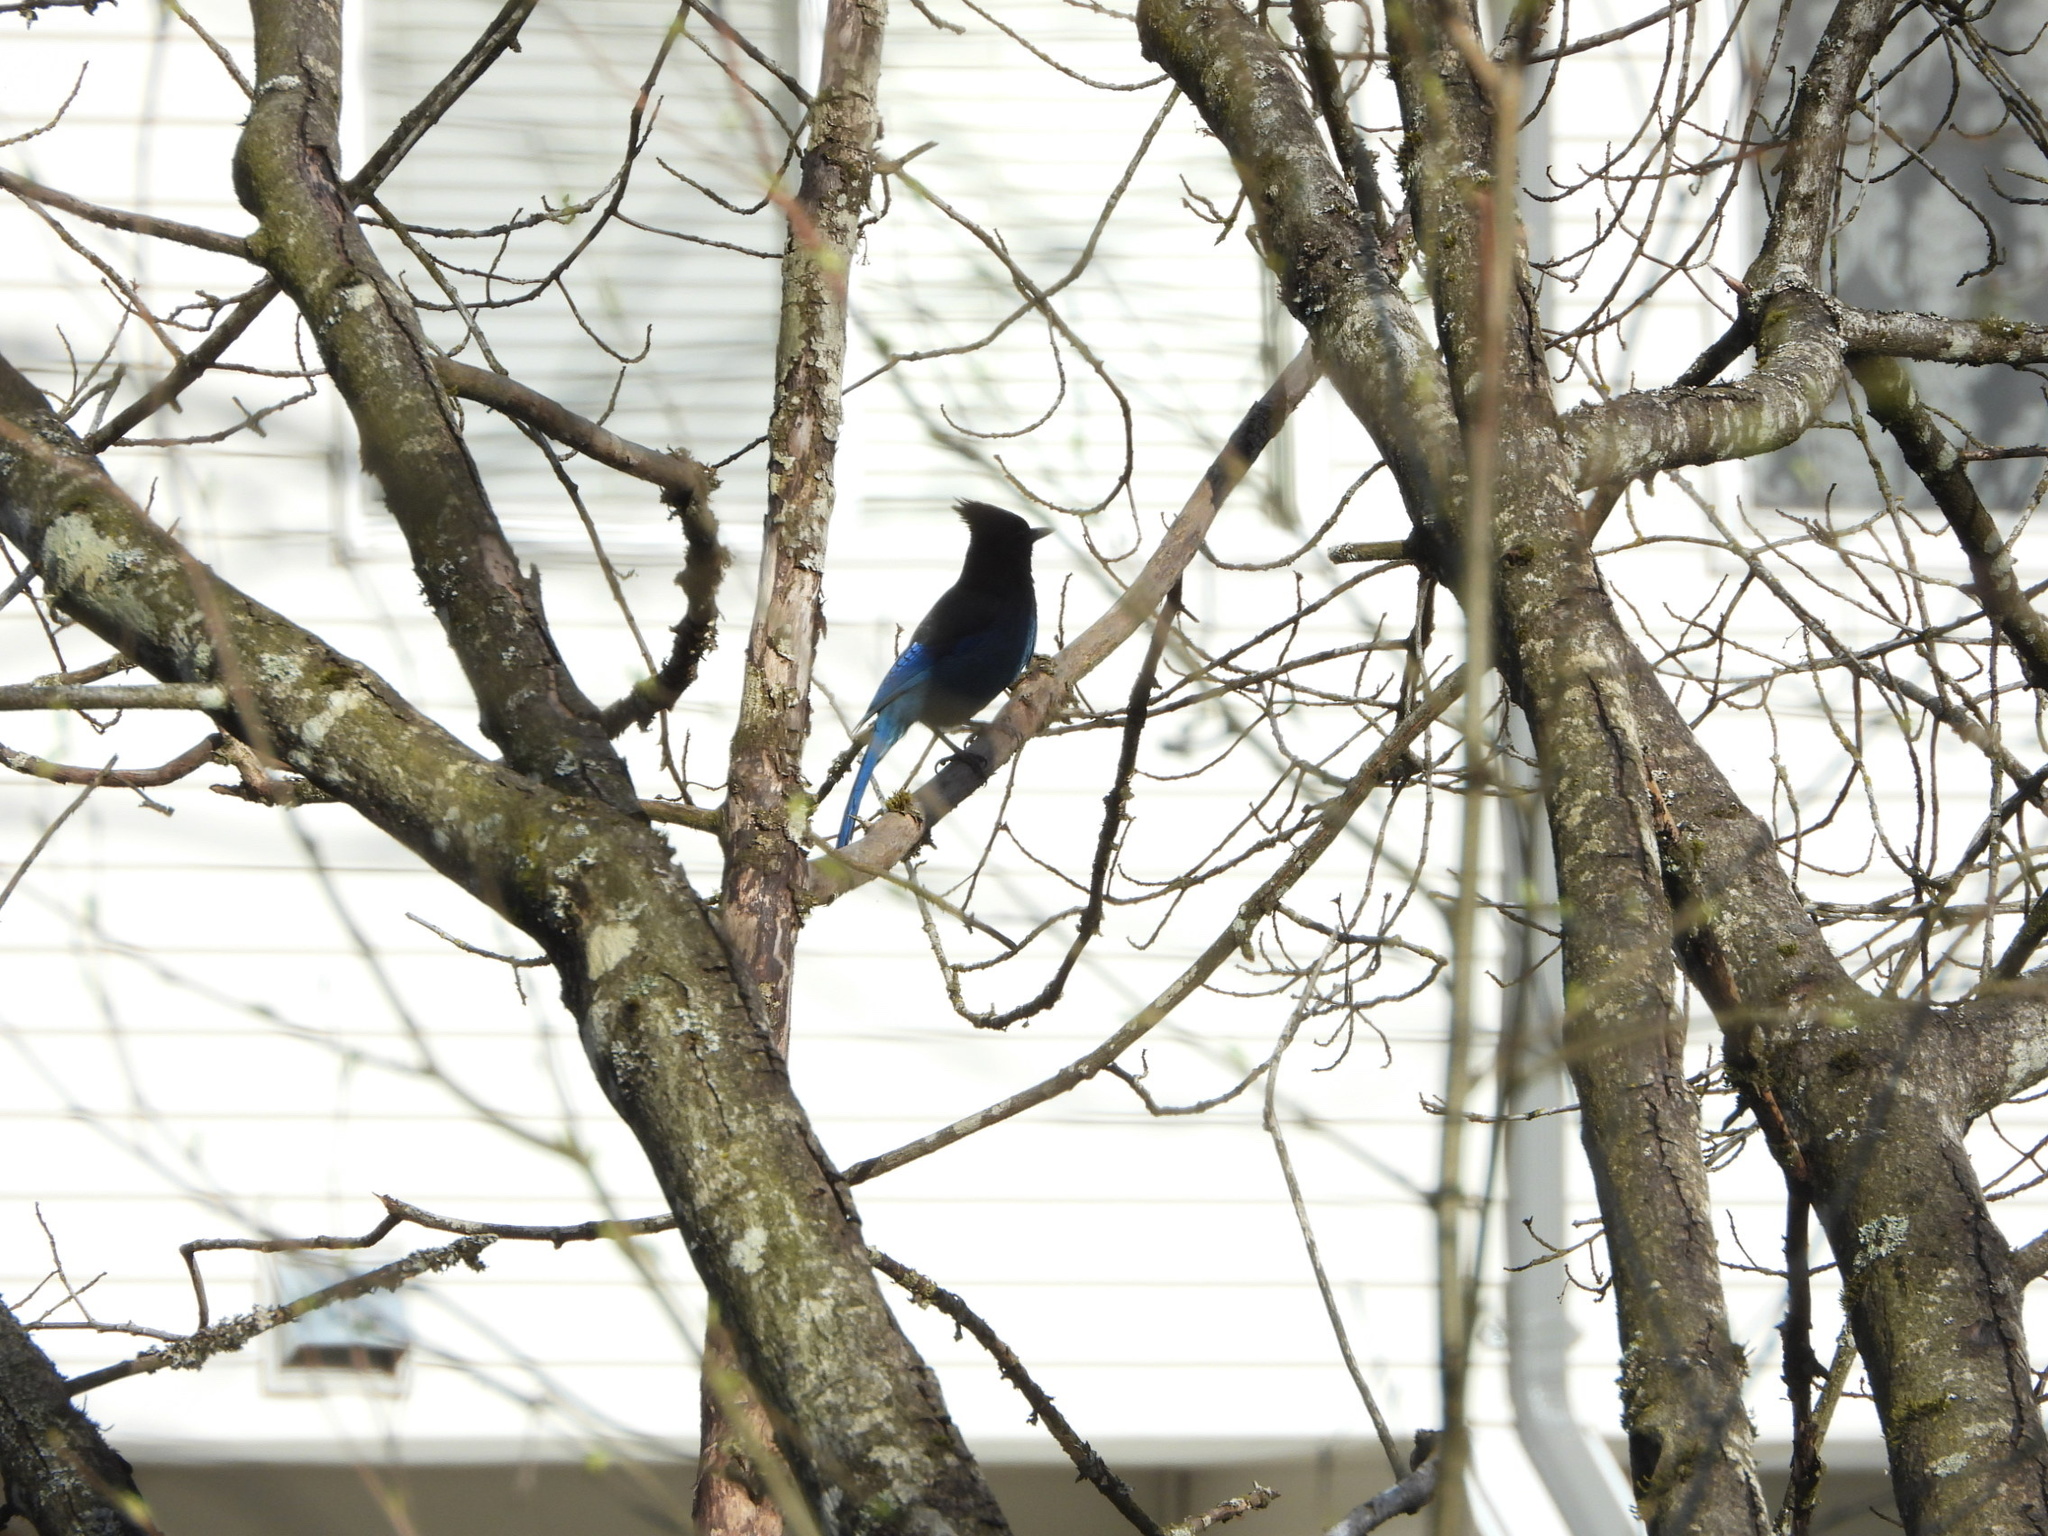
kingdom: Animalia
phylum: Chordata
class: Aves
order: Passeriformes
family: Corvidae
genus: Cyanocitta
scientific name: Cyanocitta stelleri
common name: Steller's jay
